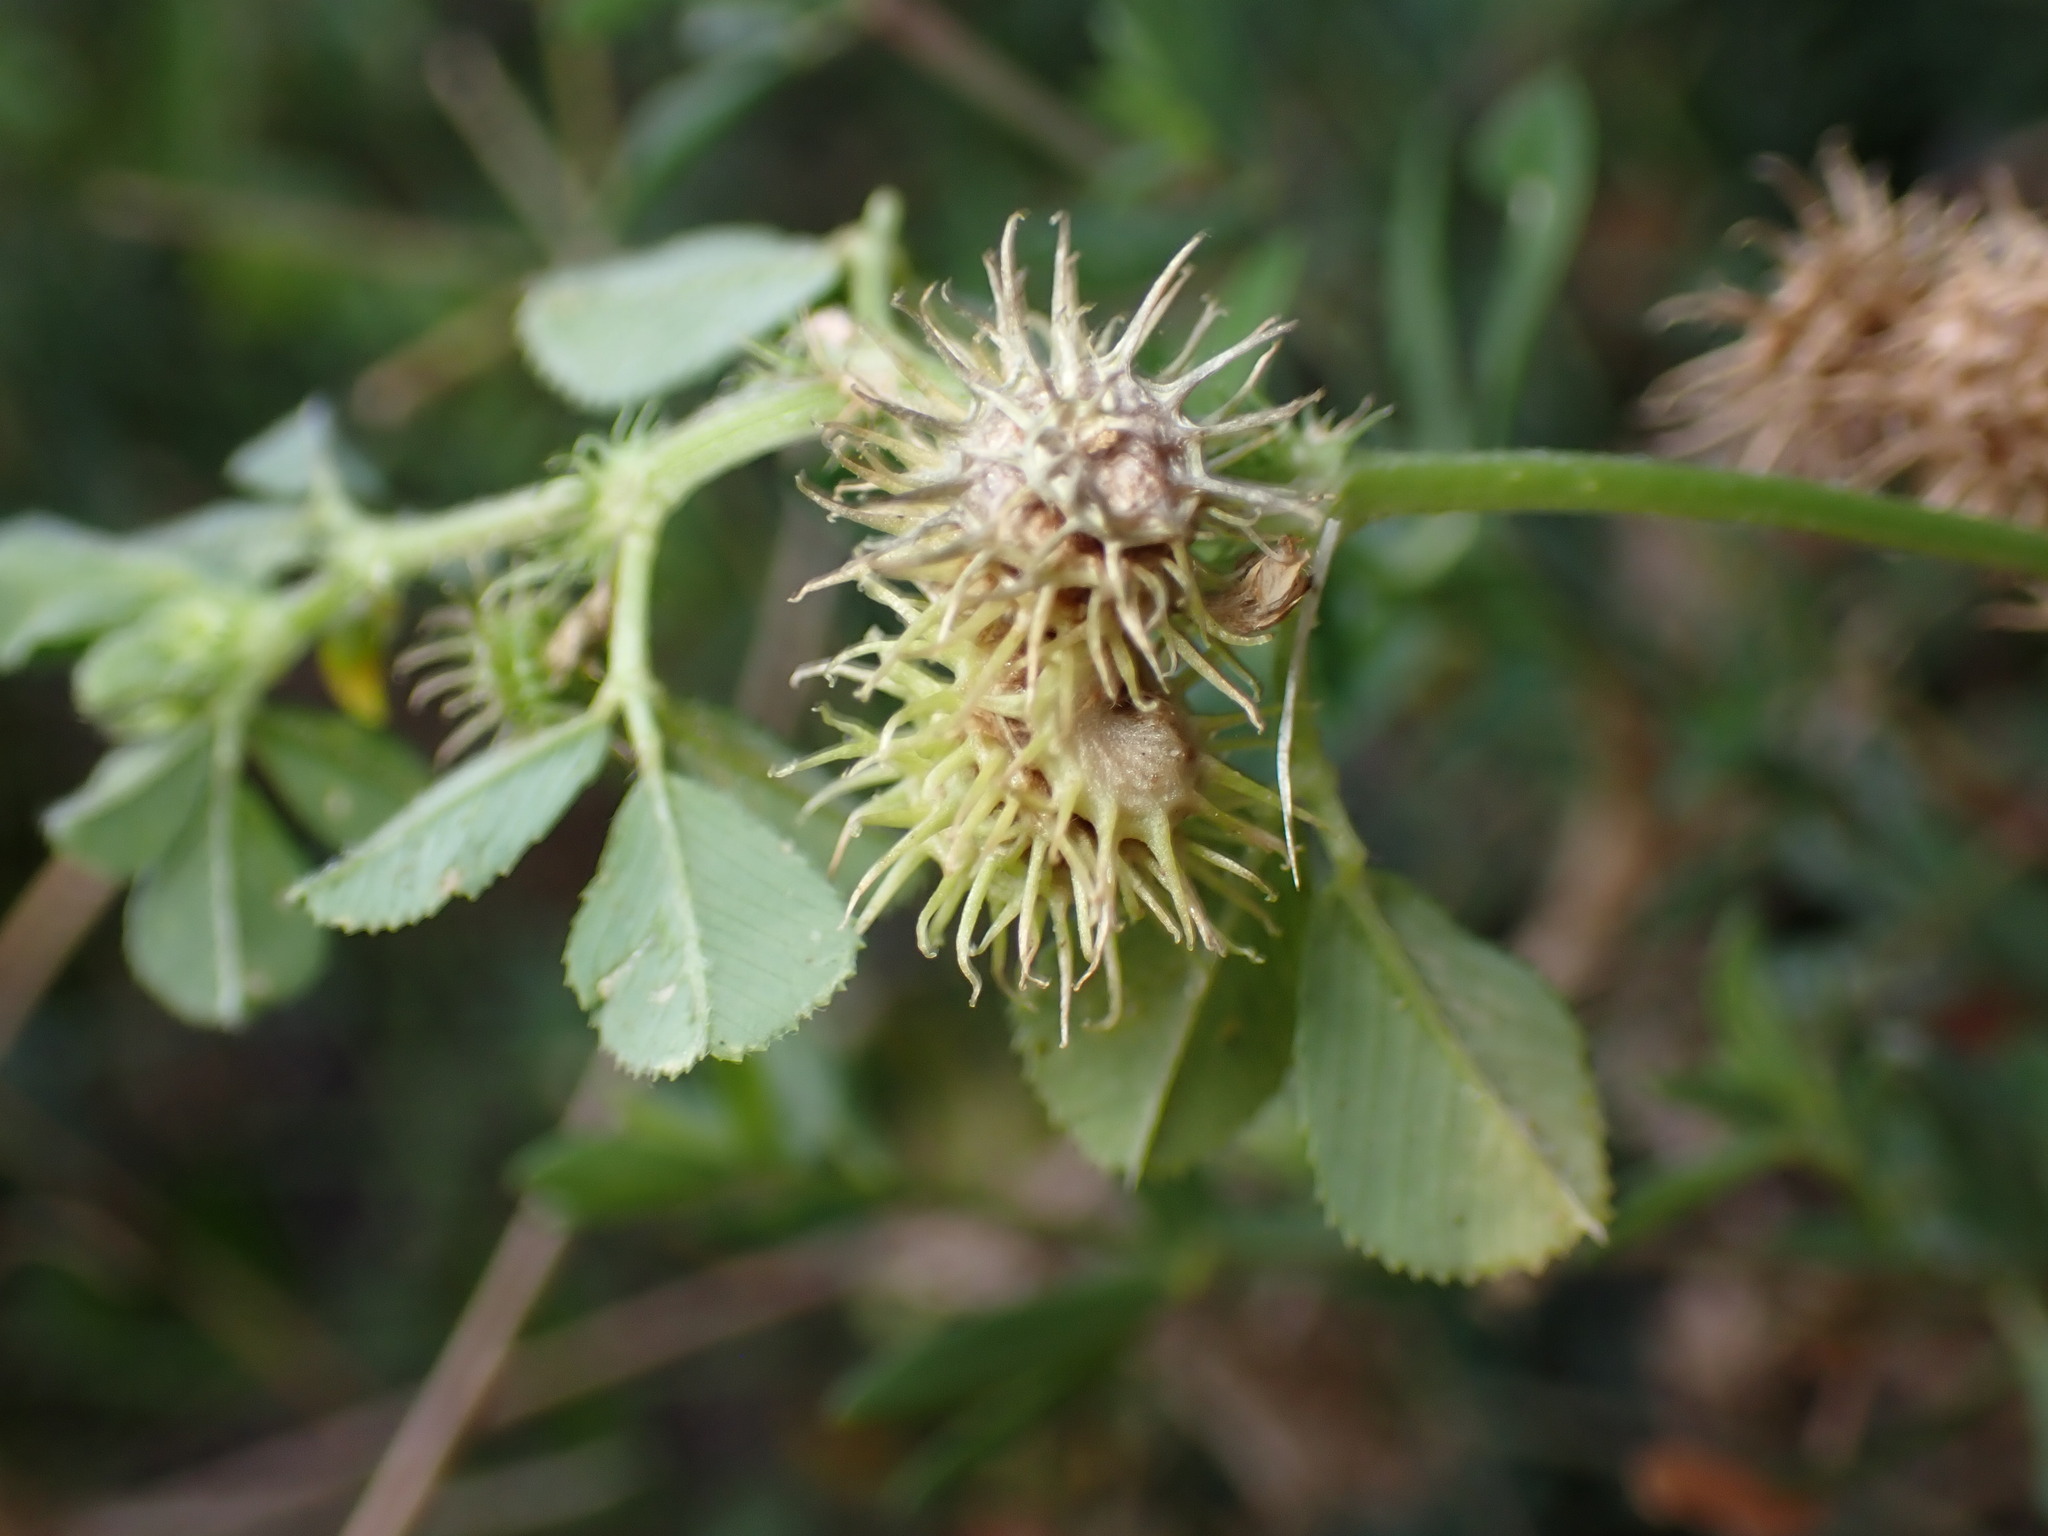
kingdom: Plantae
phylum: Tracheophyta
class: Magnoliopsida
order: Fabales
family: Fabaceae
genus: Medicago
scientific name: Medicago polymorpha
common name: Burclover
